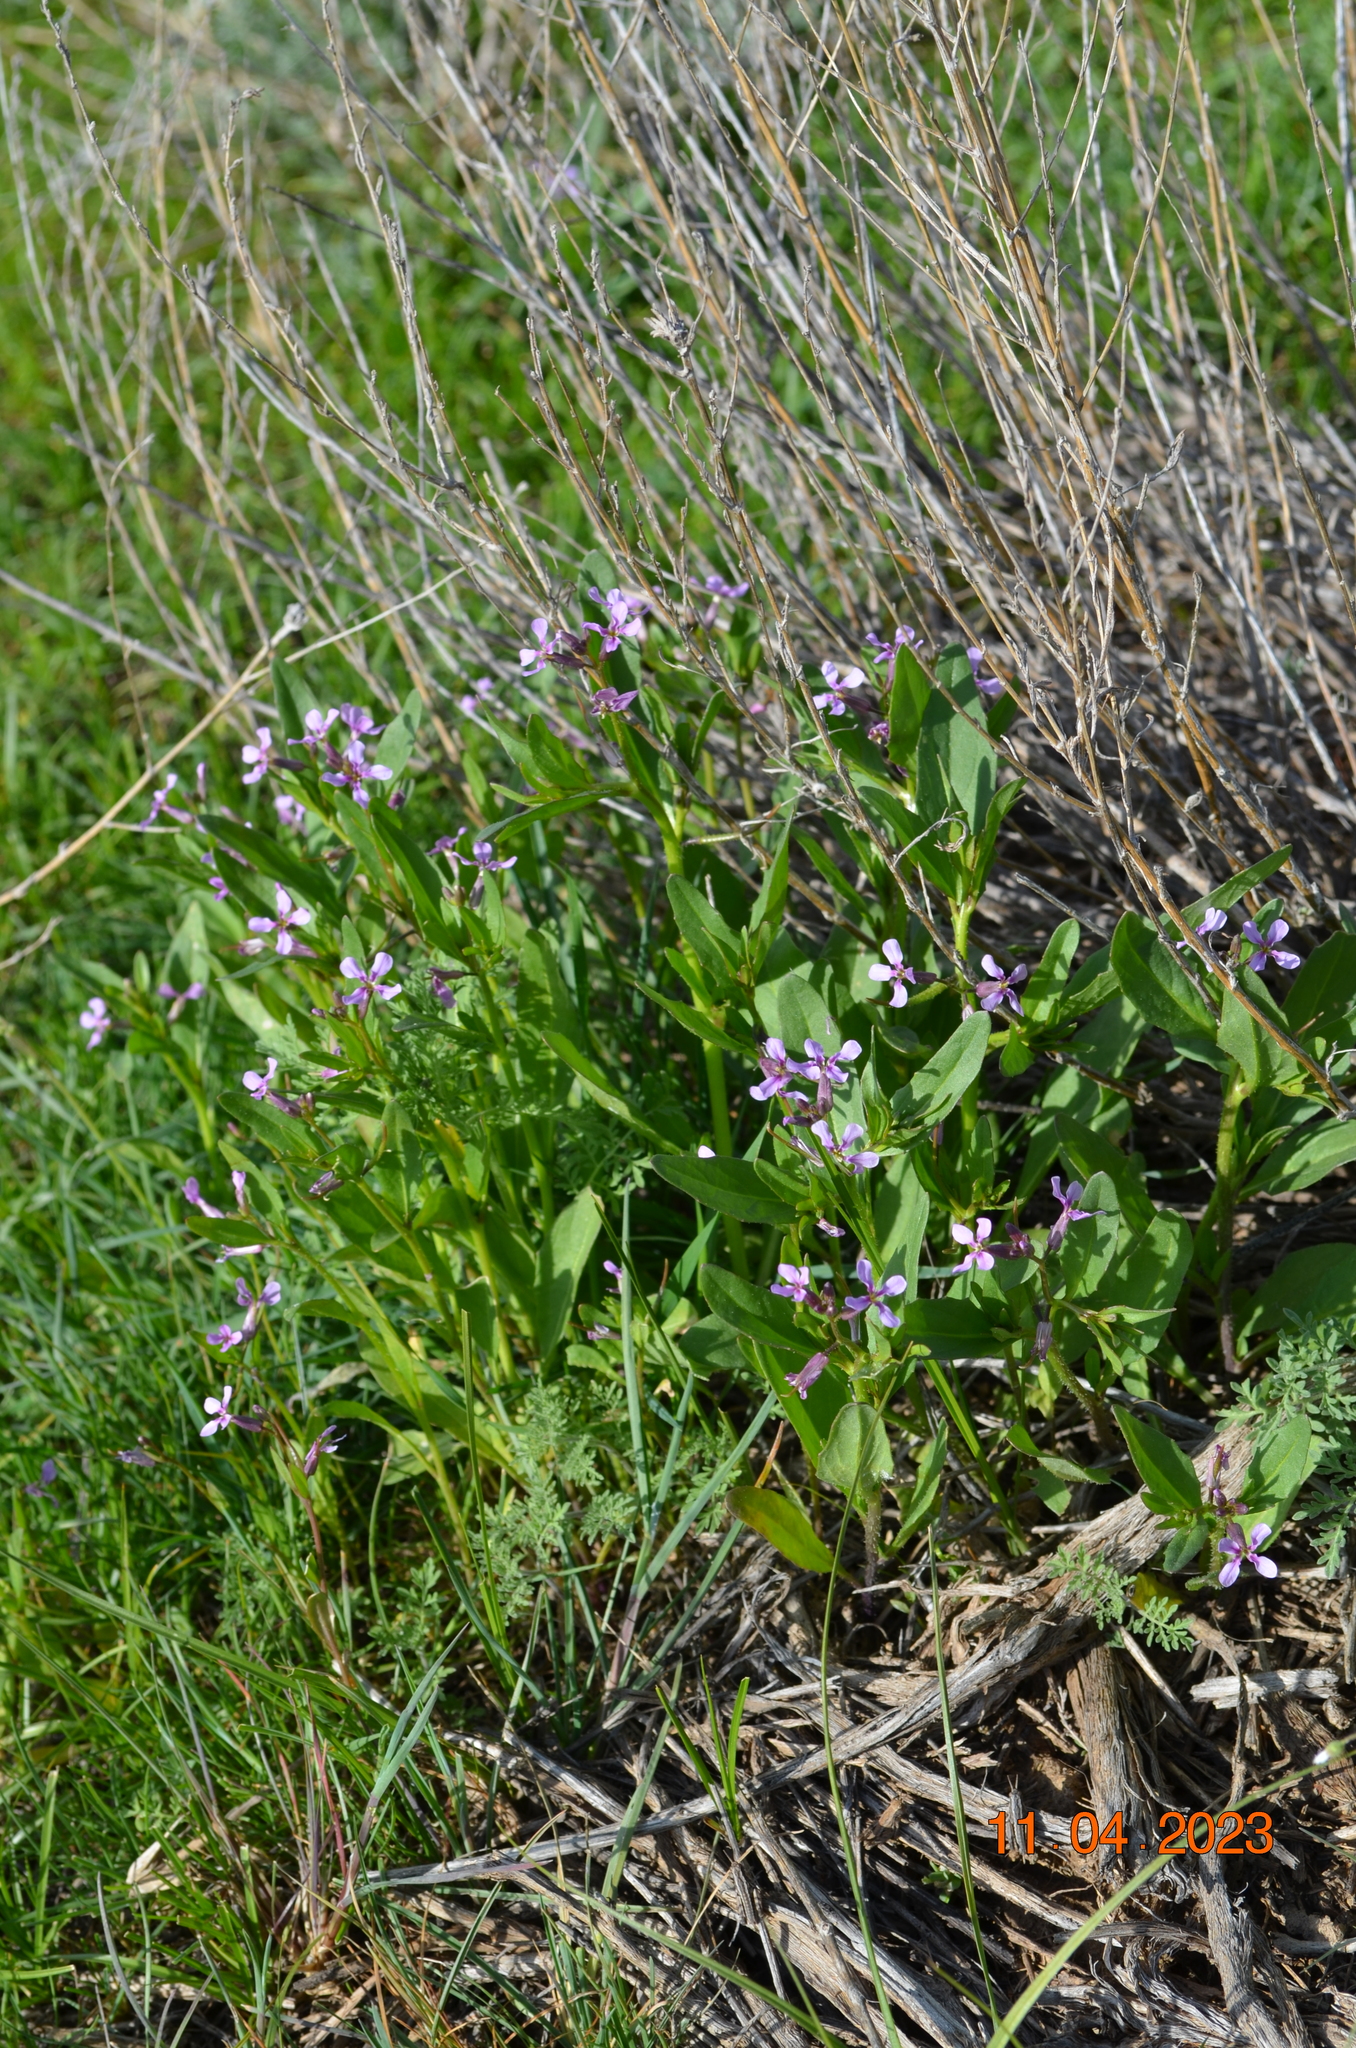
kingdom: Plantae
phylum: Tracheophyta
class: Magnoliopsida
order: Brassicales
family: Brassicaceae
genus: Chorispora
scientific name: Chorispora tenella
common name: Crossflower
